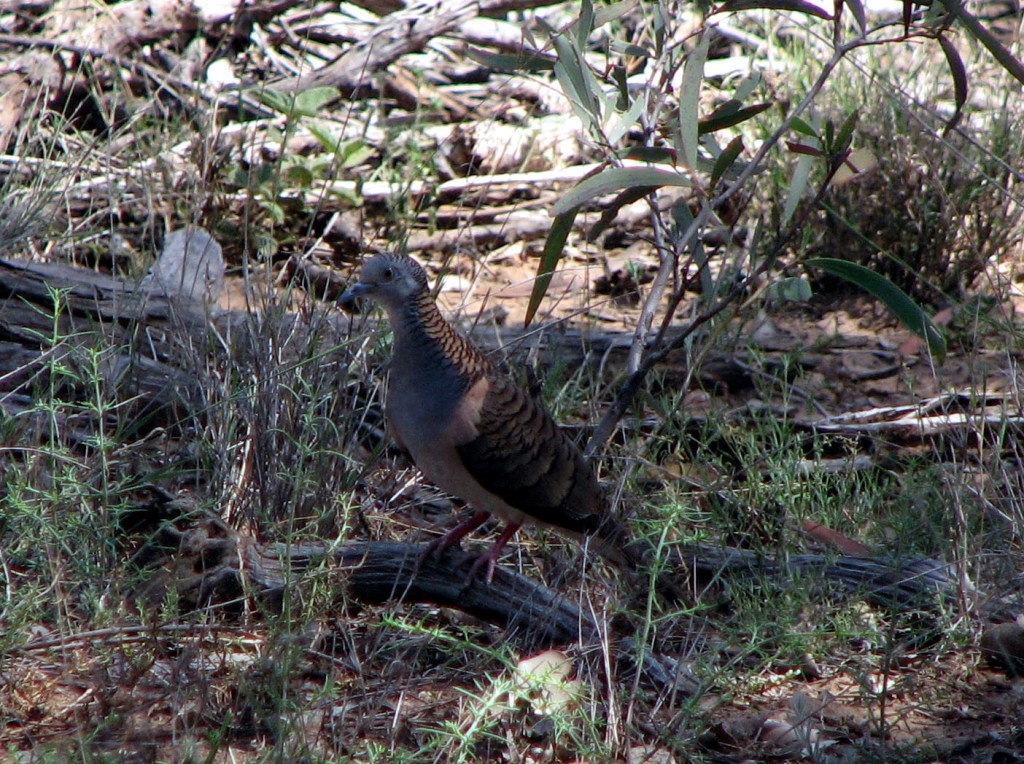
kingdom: Animalia
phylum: Chordata
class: Aves
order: Columbiformes
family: Columbidae
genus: Geopelia
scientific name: Geopelia humeralis
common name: Bar-shouldered dove
